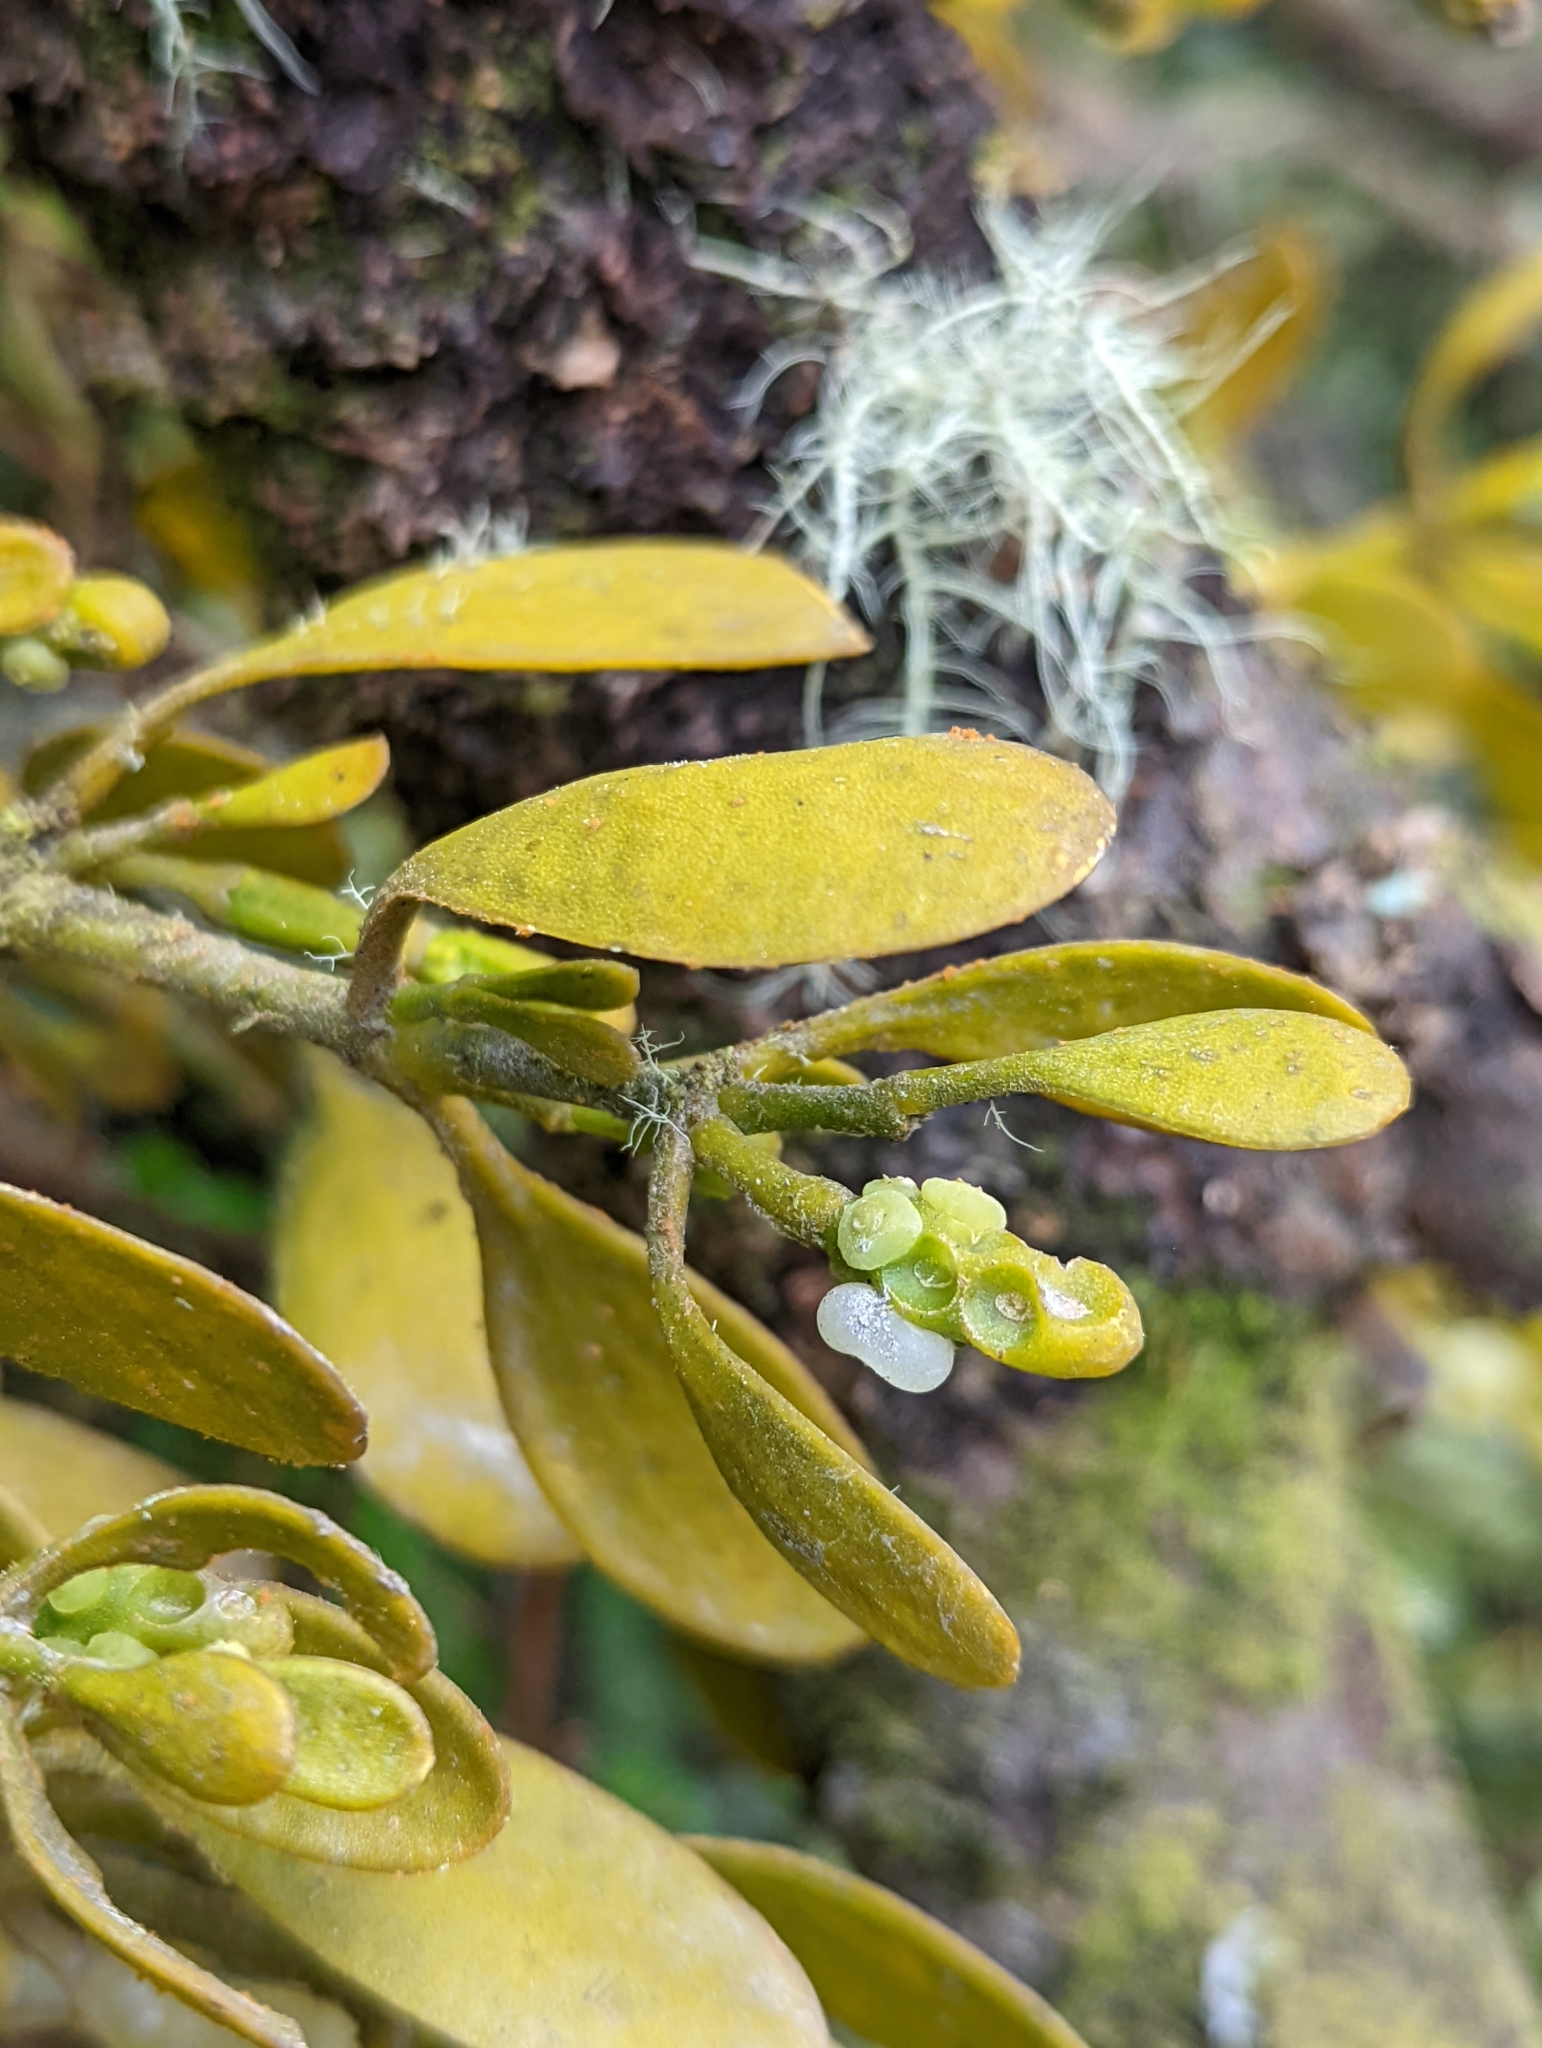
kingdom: Plantae
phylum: Tracheophyta
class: Magnoliopsida
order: Santalales
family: Viscaceae
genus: Dendrophthora
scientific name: Dendrophthora clavata
